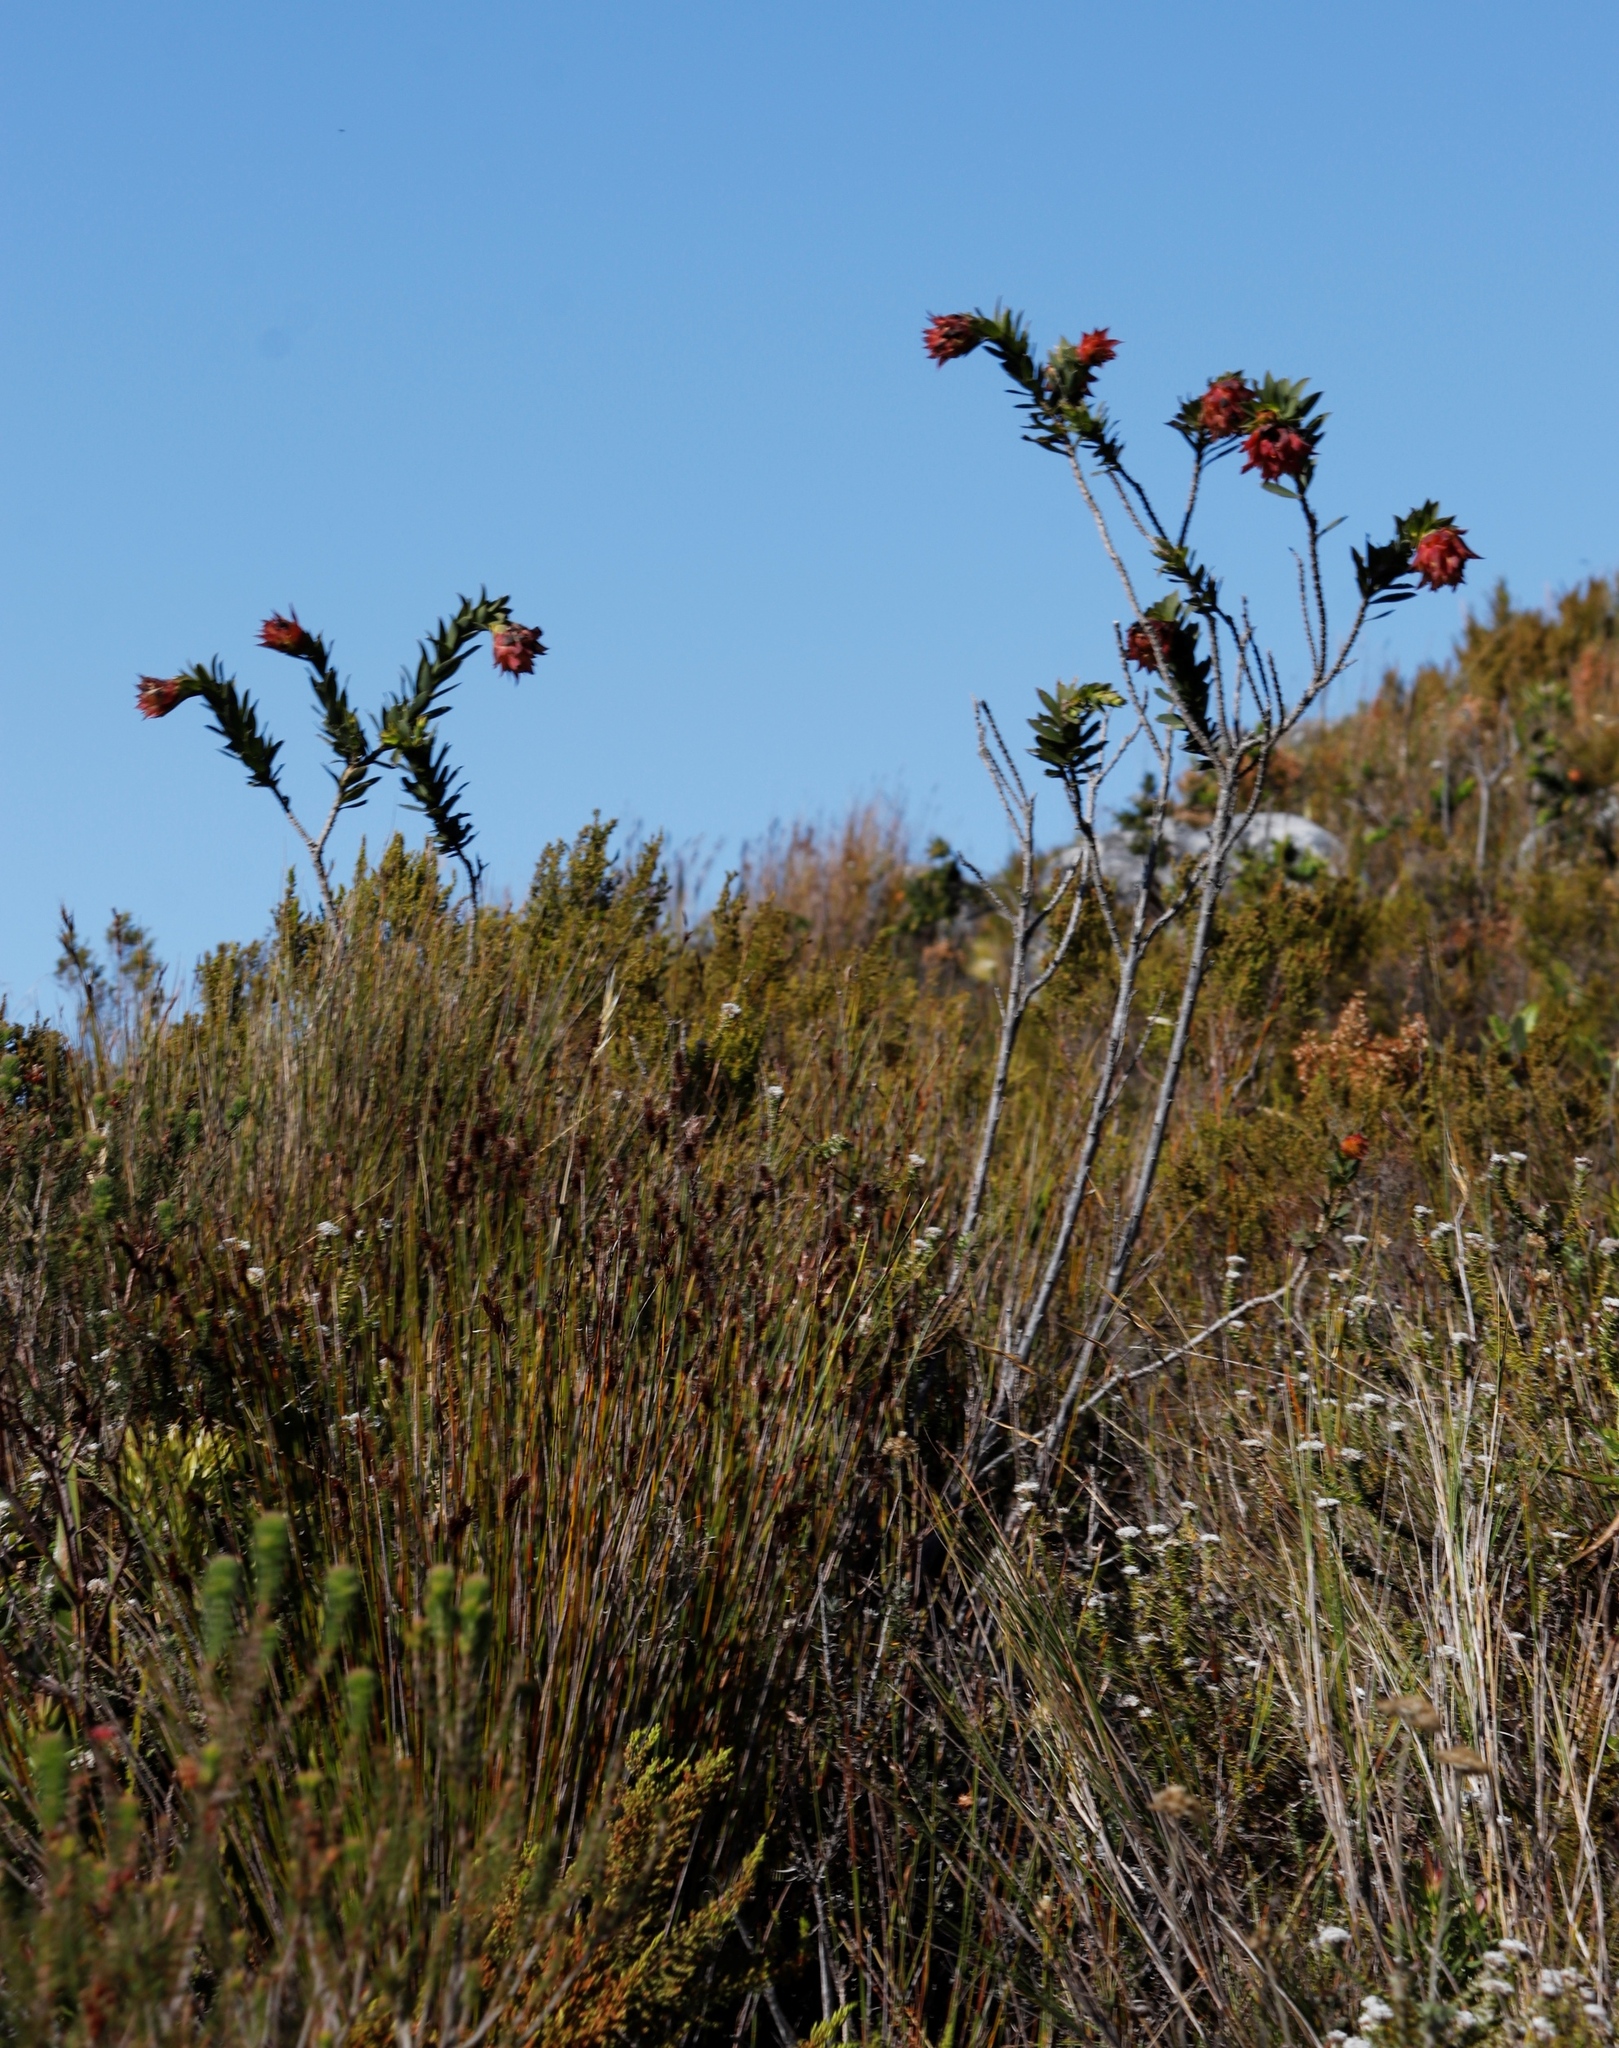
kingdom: Plantae
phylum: Tracheophyta
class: Magnoliopsida
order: Fabales
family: Fabaceae
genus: Liparia
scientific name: Liparia splendens
